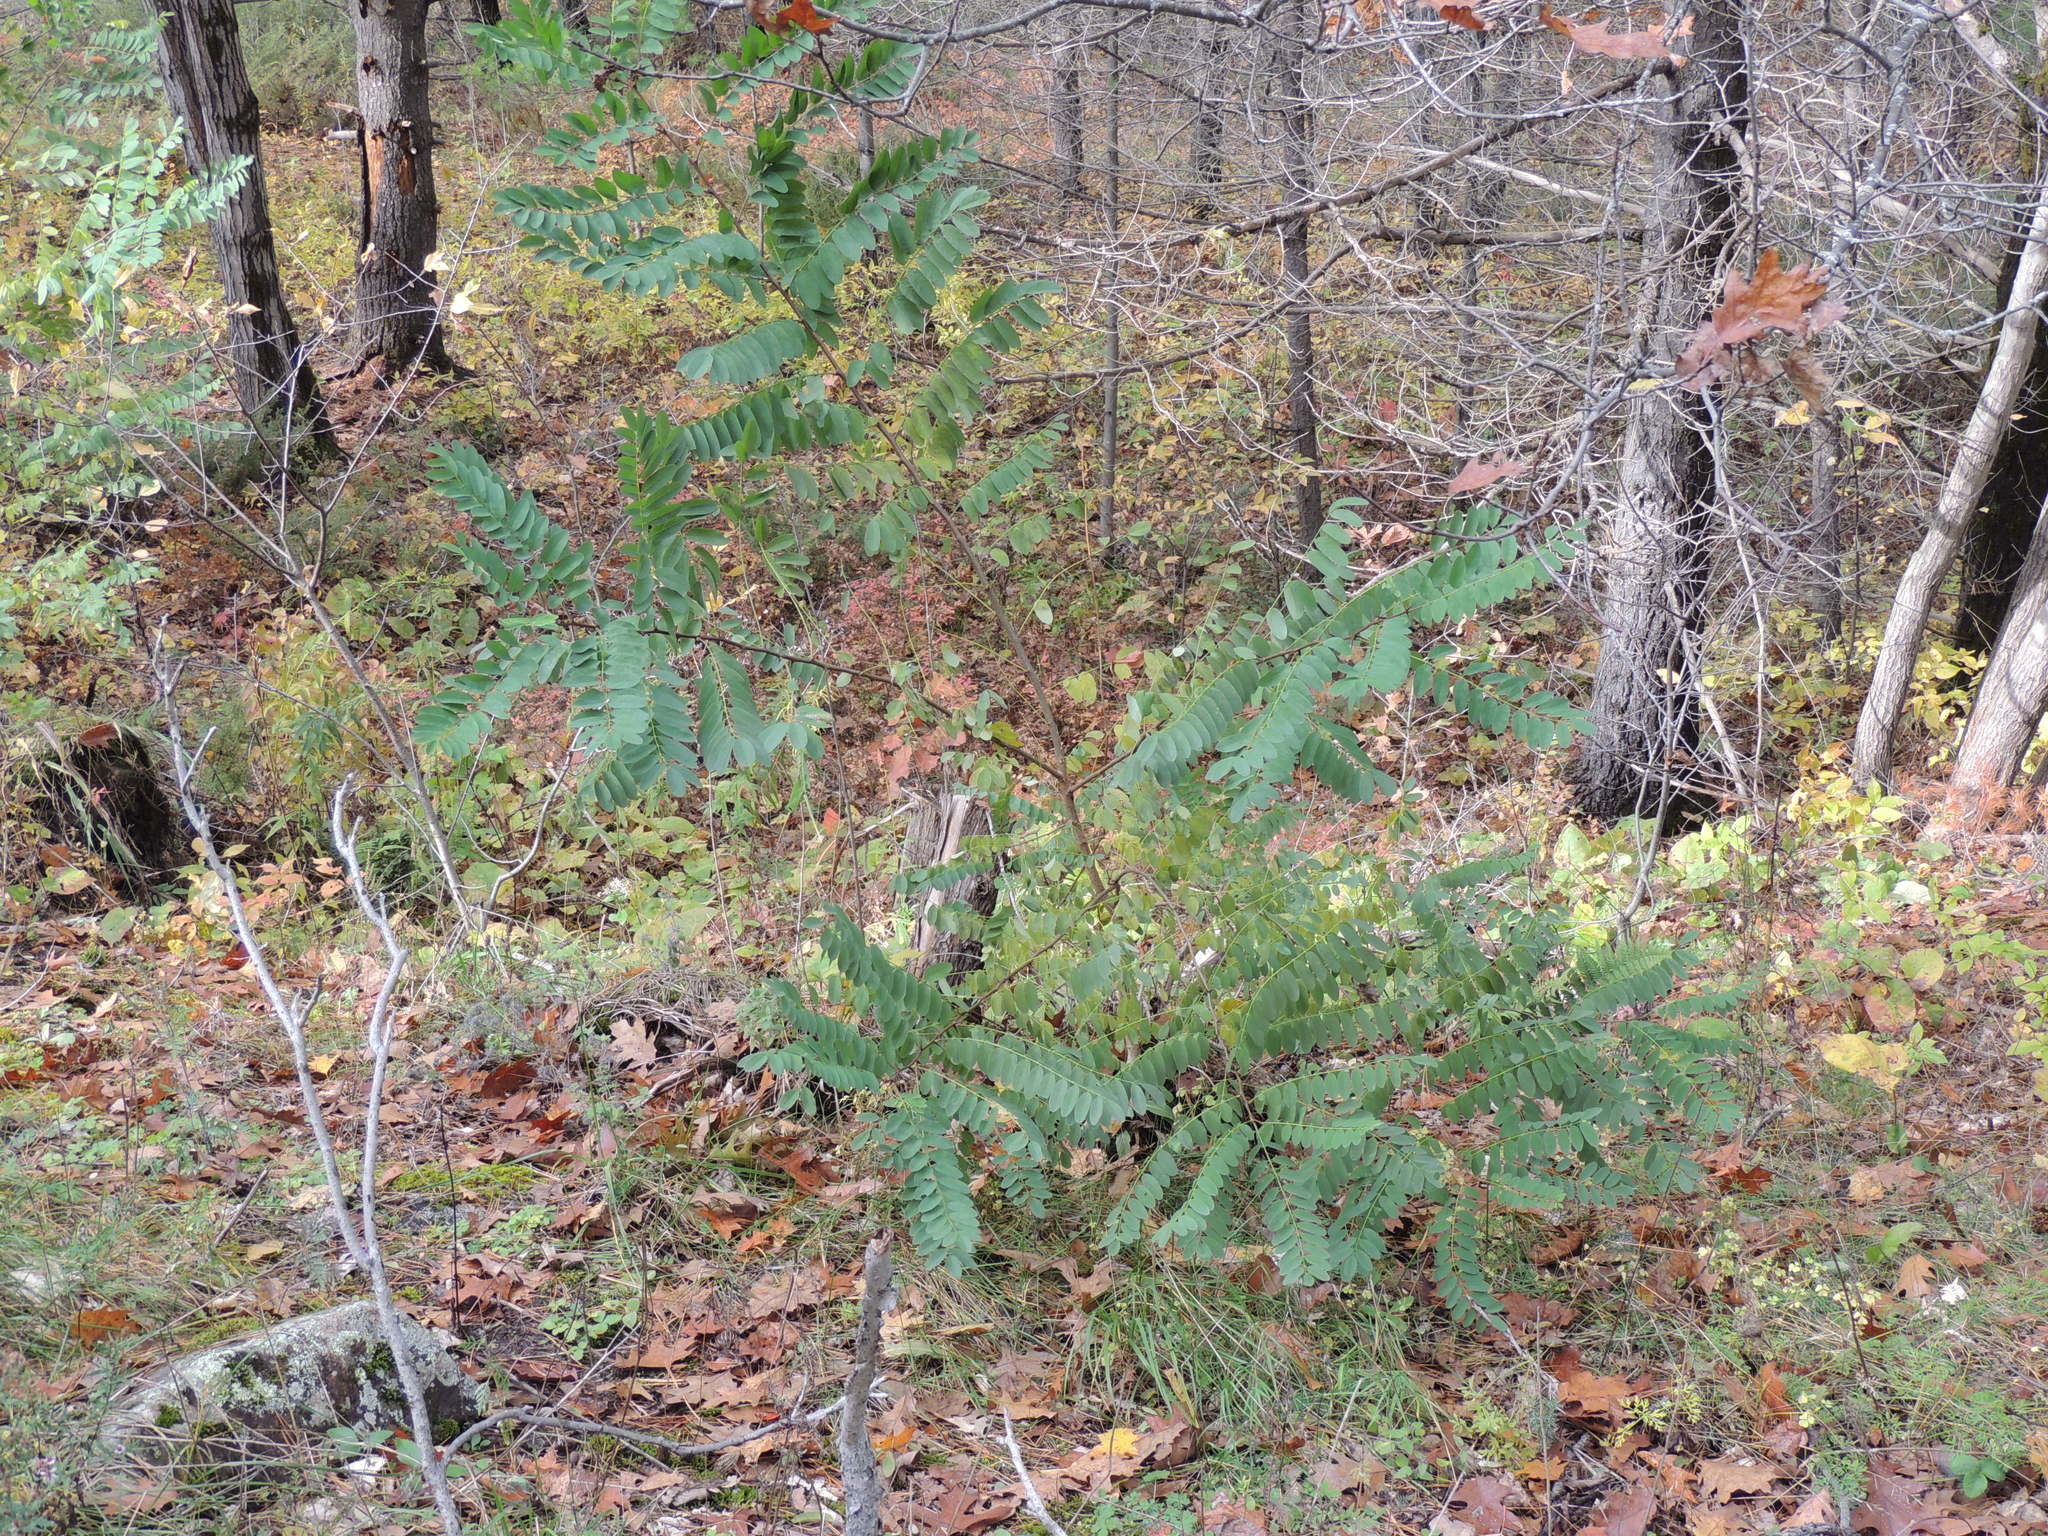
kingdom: Plantae
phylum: Tracheophyta
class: Magnoliopsida
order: Fabales
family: Fabaceae
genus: Robinia
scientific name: Robinia pseudoacacia
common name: Black locust
